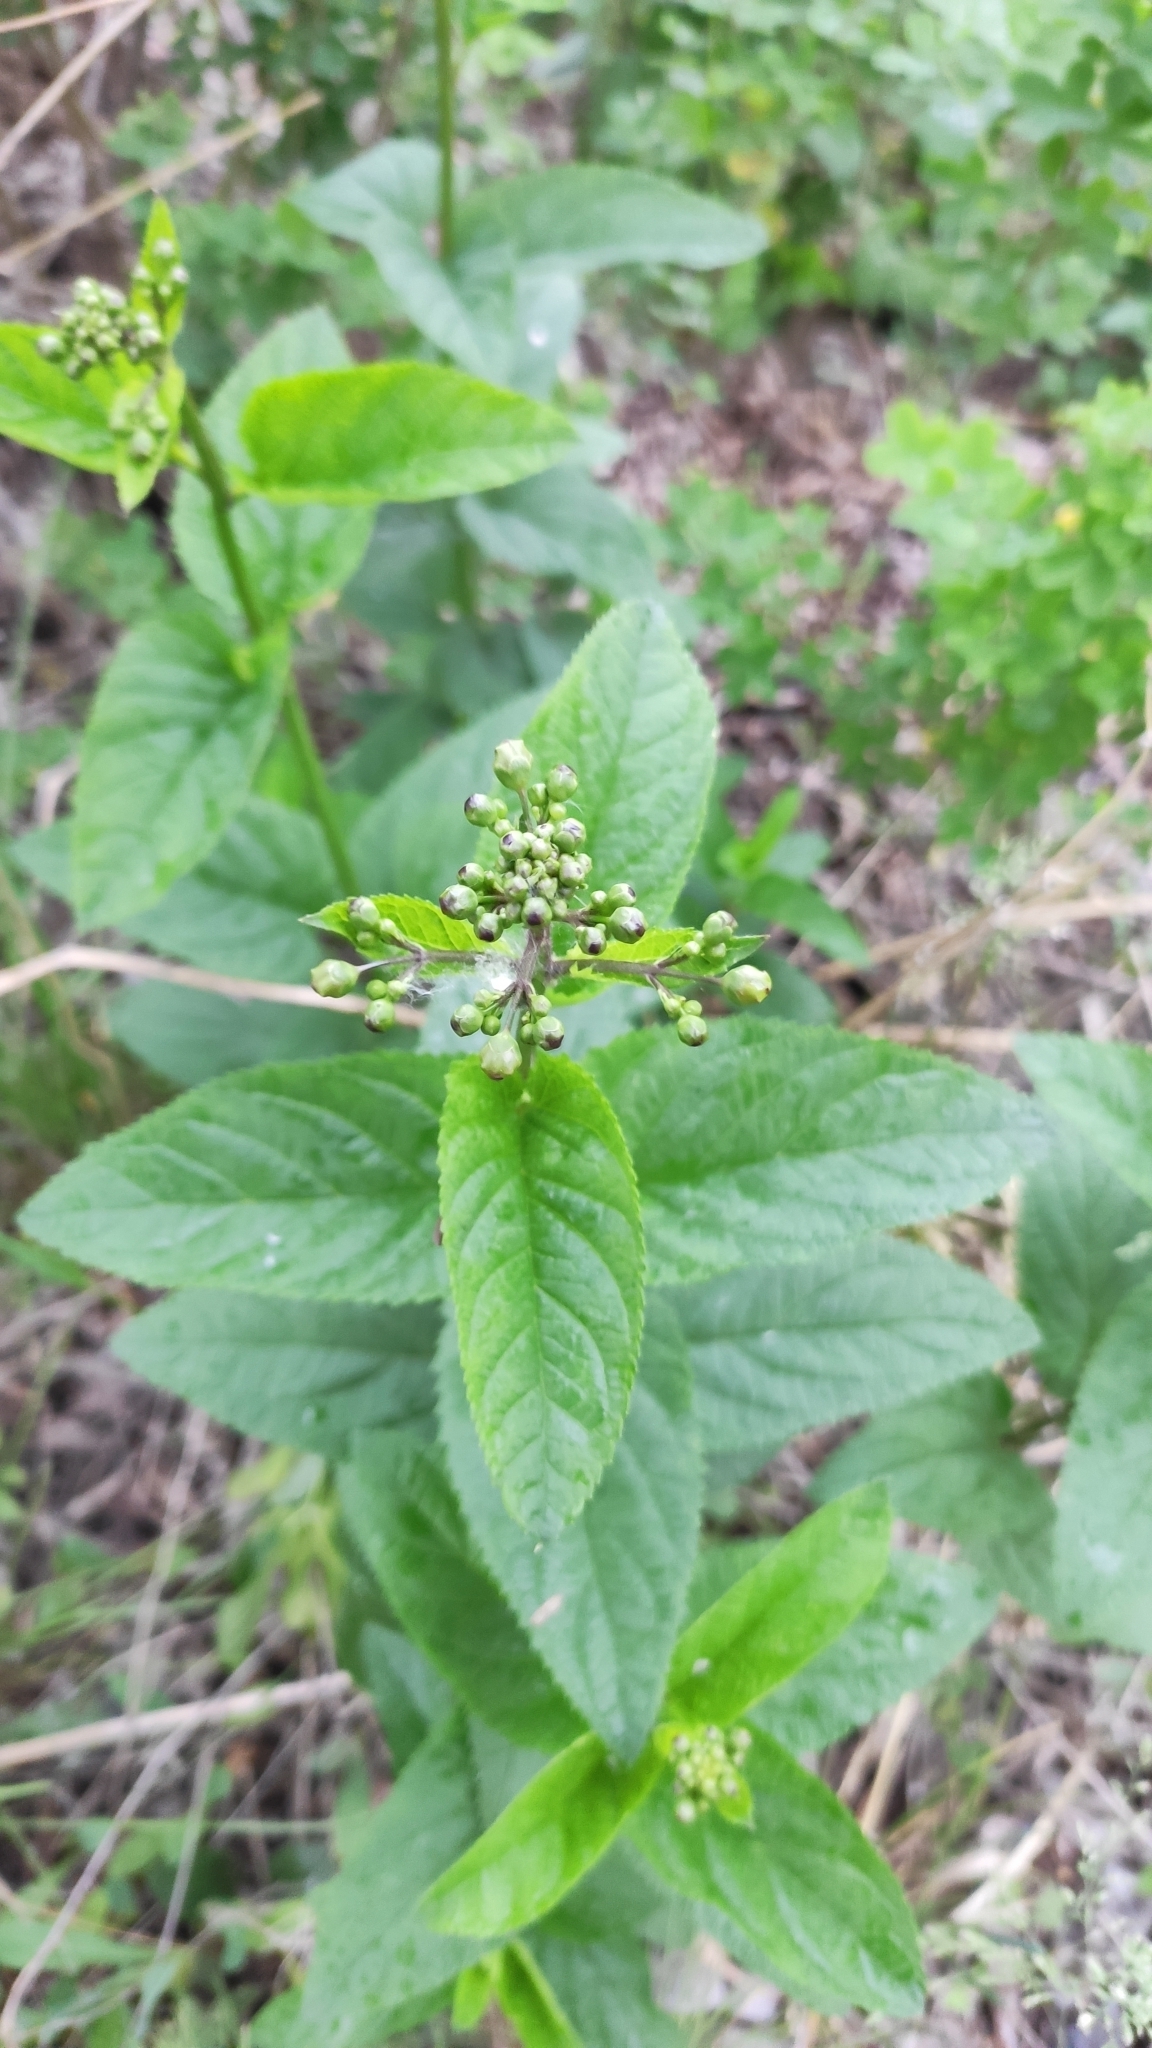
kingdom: Plantae
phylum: Tracheophyta
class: Magnoliopsida
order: Lamiales
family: Scrophulariaceae
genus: Scrophularia
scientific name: Scrophularia nodosa
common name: Common figwort
